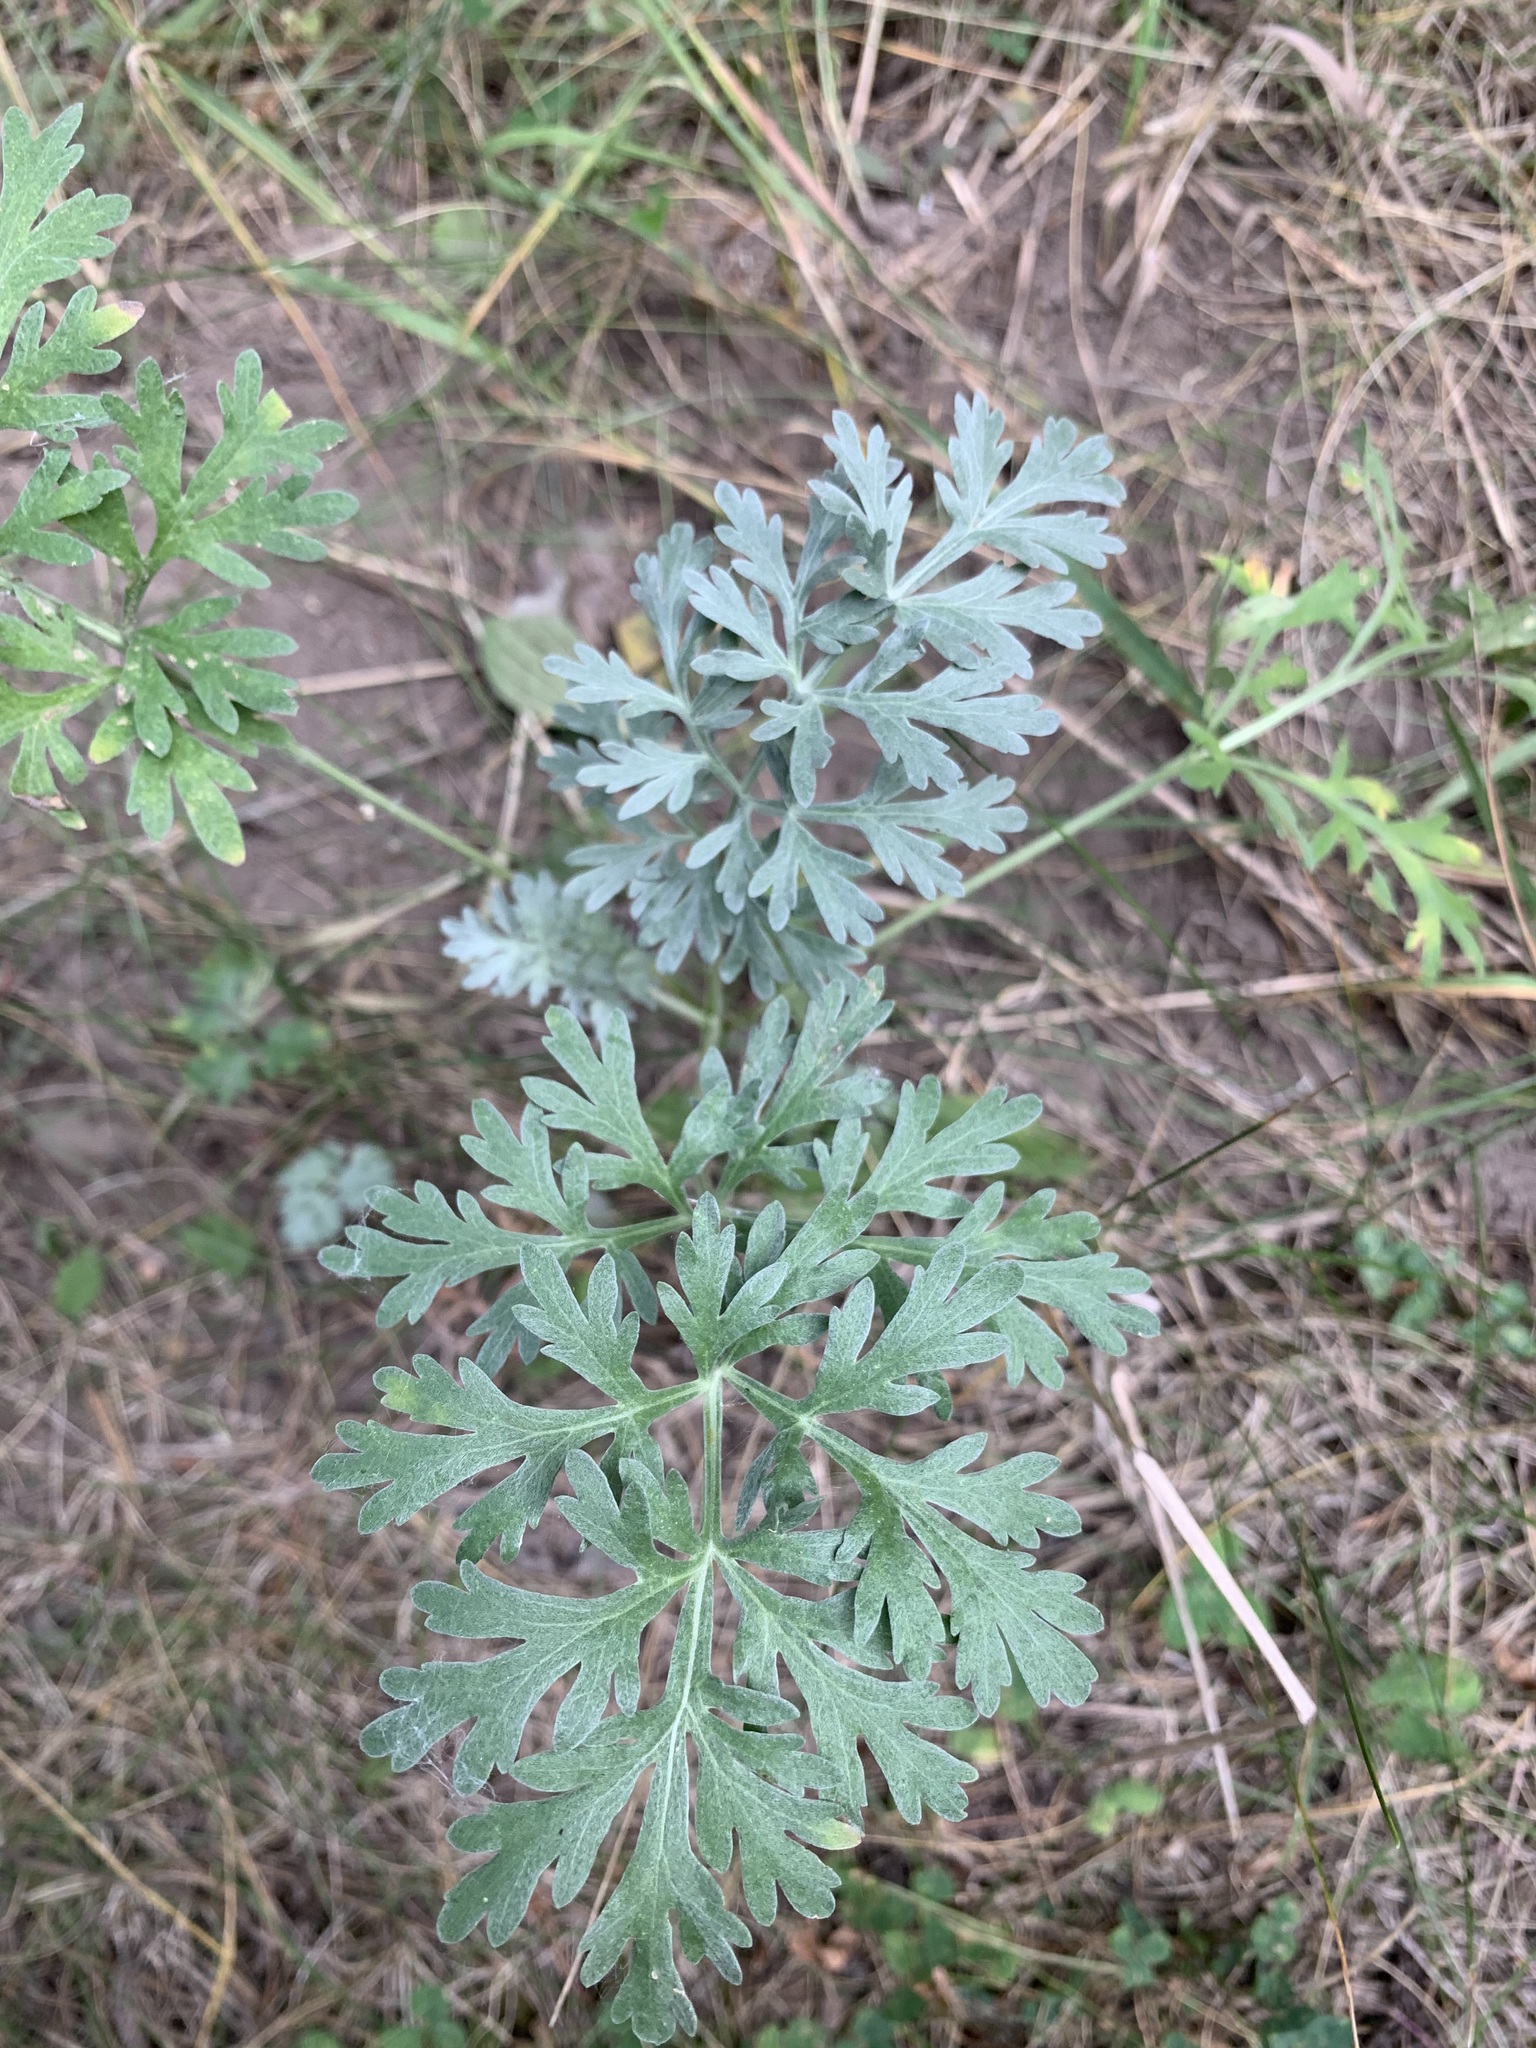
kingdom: Plantae
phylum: Tracheophyta
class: Magnoliopsida
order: Asterales
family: Asteraceae
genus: Artemisia
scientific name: Artemisia absinthium
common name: Wormwood
